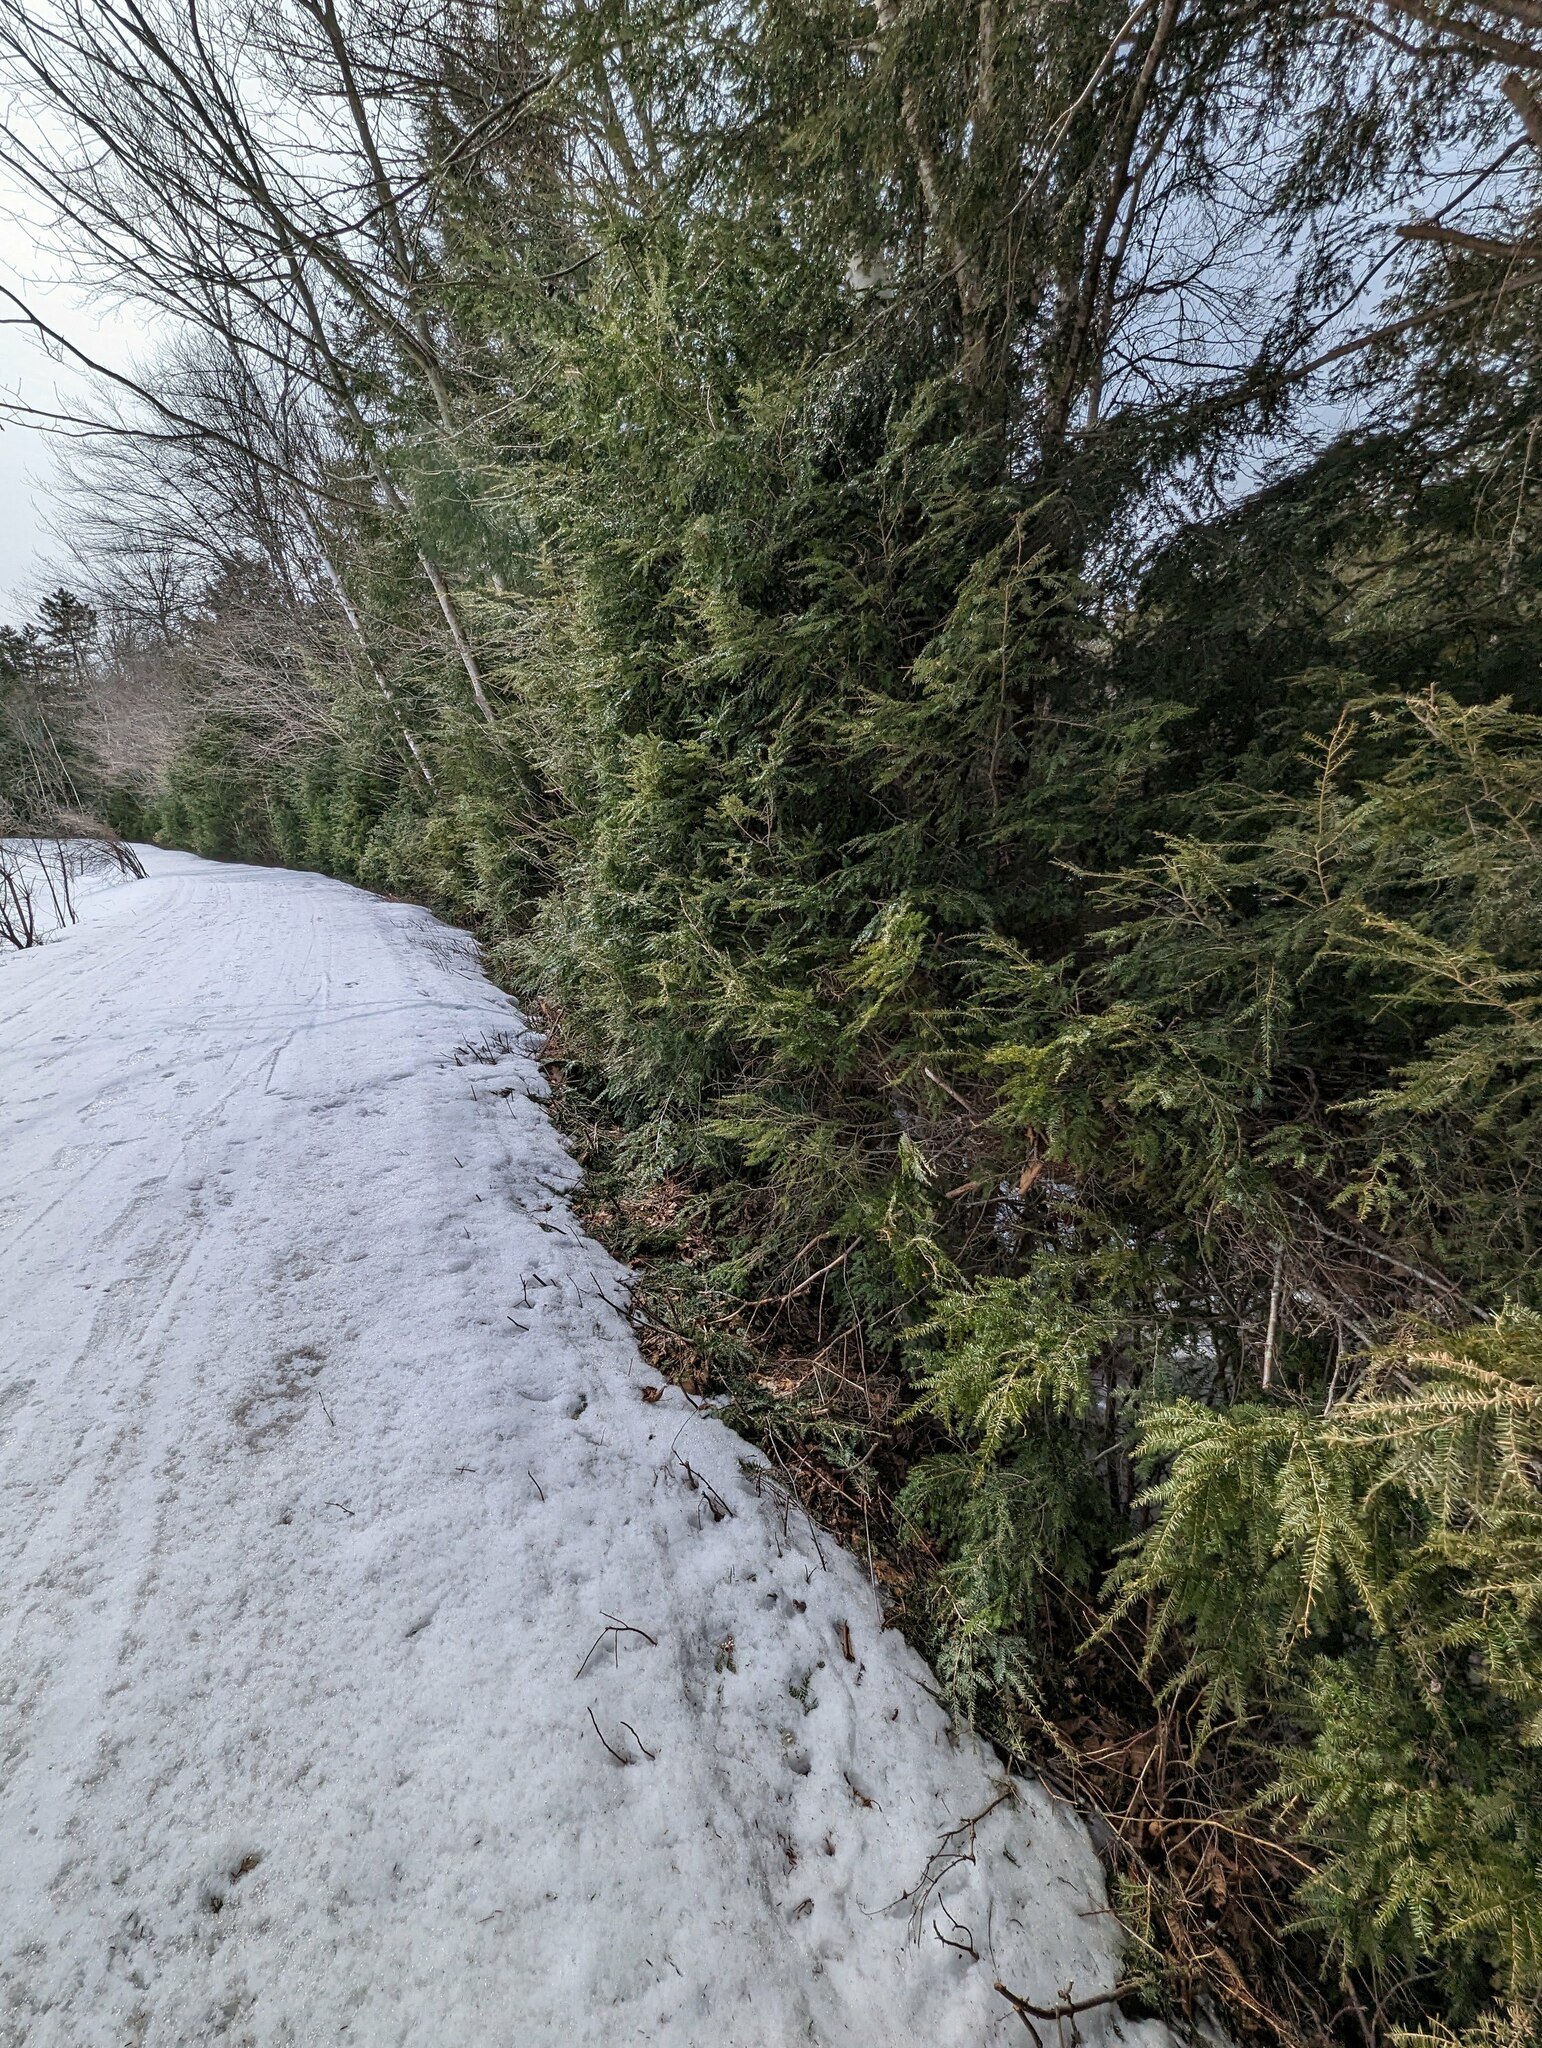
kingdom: Plantae
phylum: Tracheophyta
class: Pinopsida
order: Pinales
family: Pinaceae
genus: Tsuga
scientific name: Tsuga canadensis
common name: Eastern hemlock
